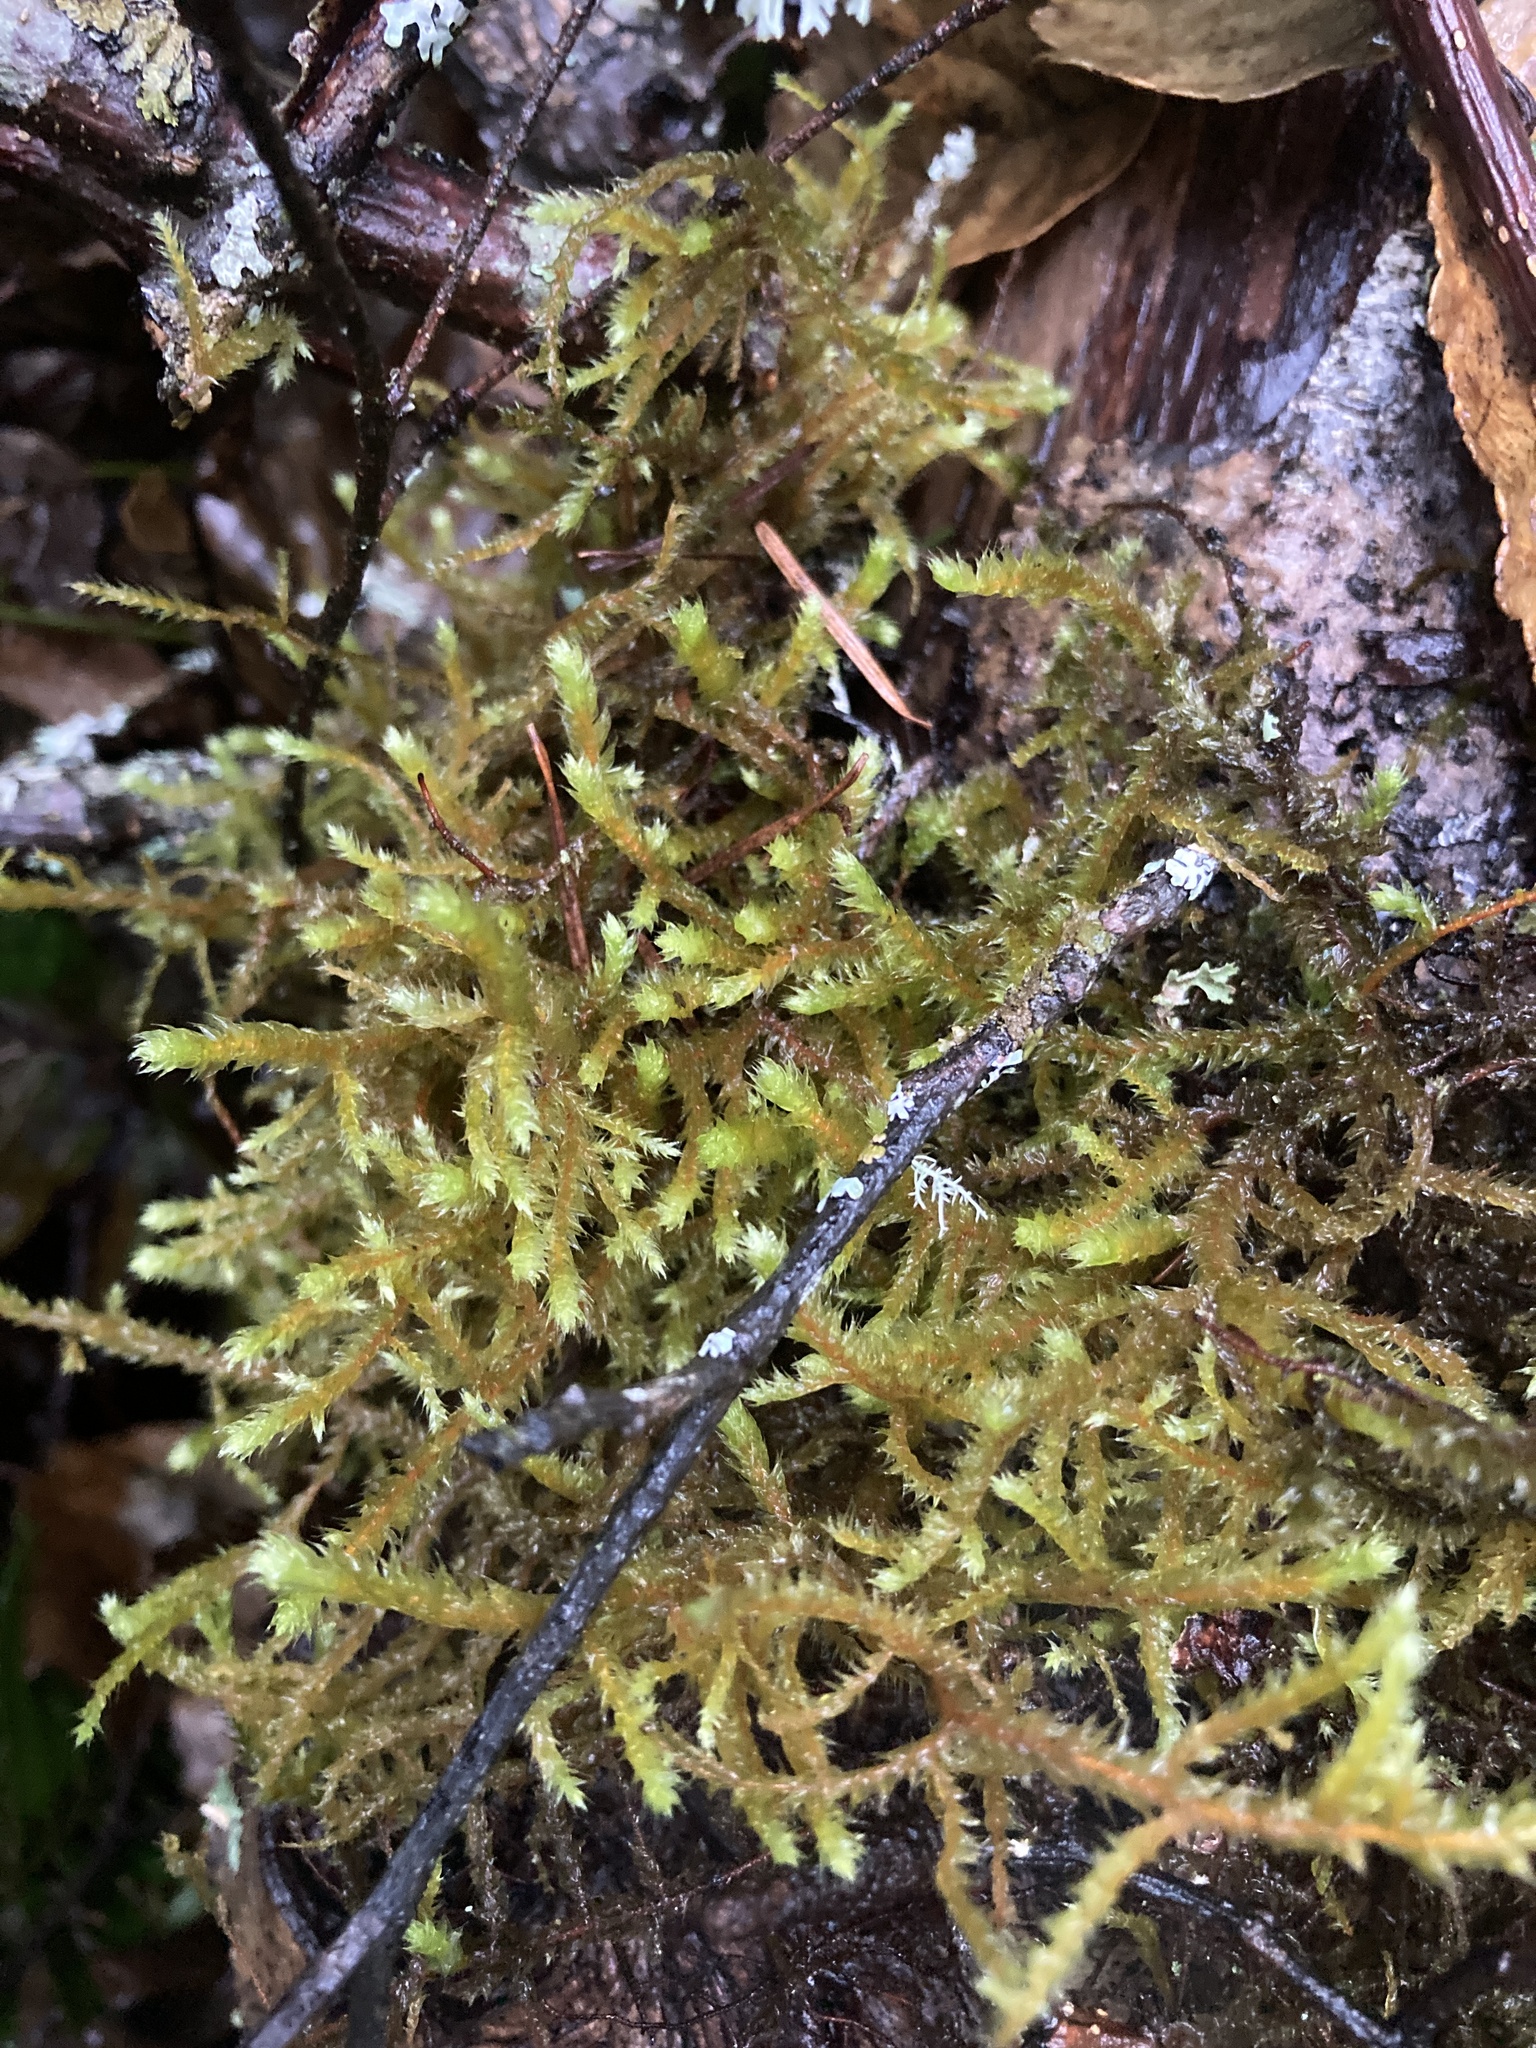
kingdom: Plantae
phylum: Bryophyta
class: Bryopsida
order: Hypnales
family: Antitrichiaceae
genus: Antitrichia
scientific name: Antitrichia curtipendula
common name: Pendulous wing-moss
